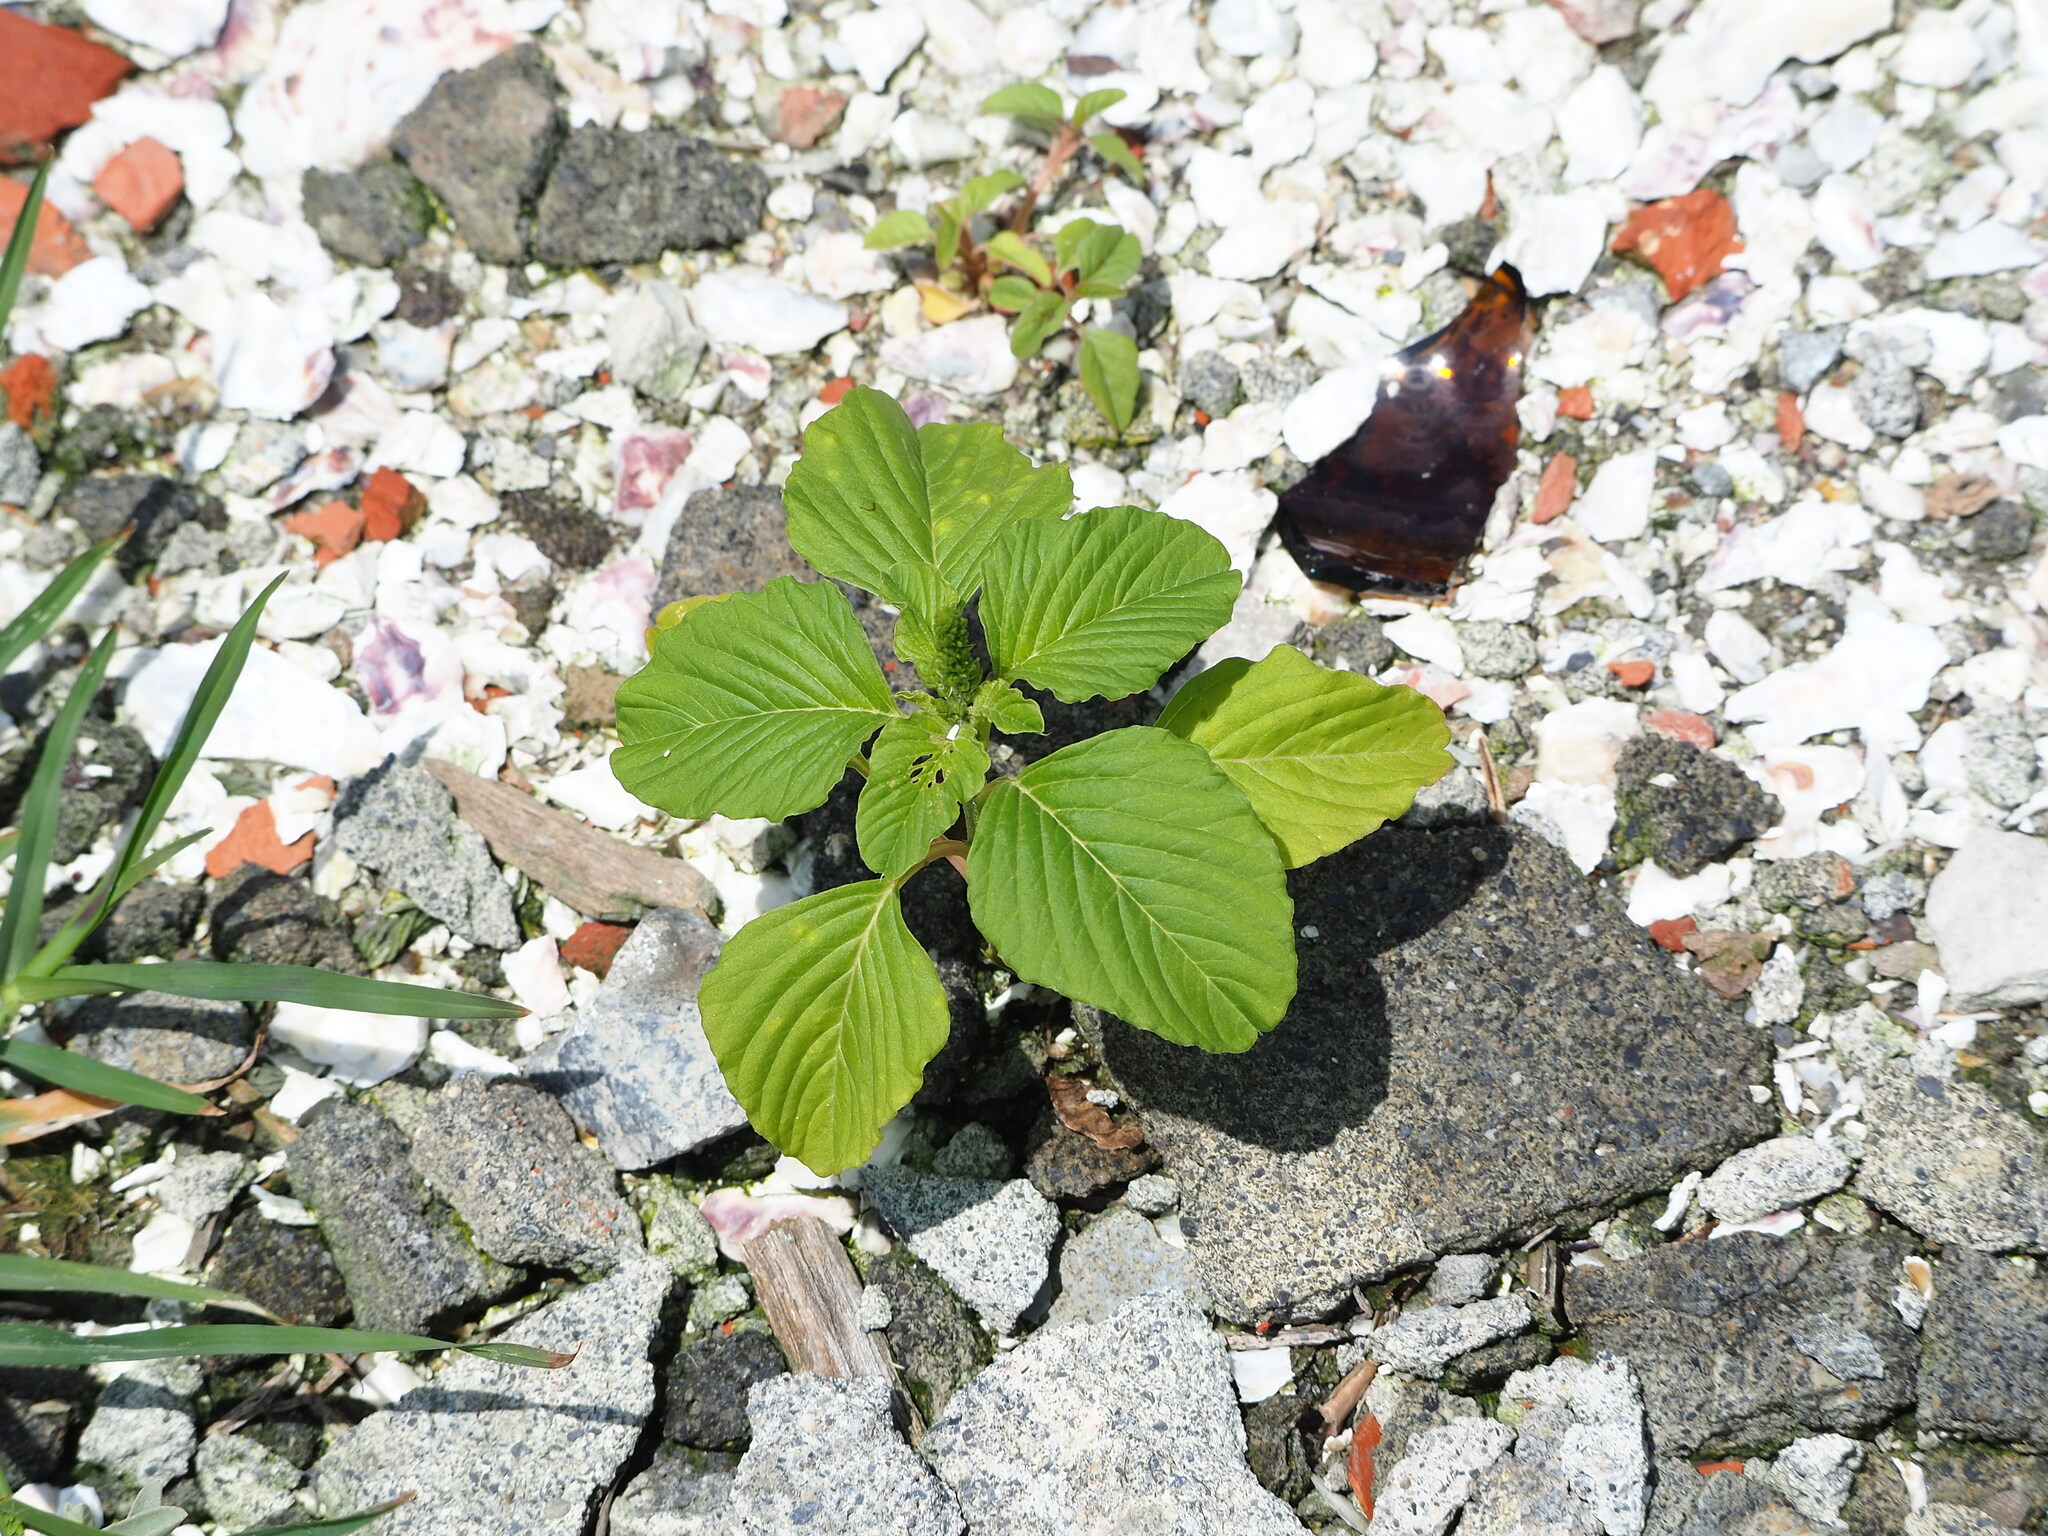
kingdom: Plantae
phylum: Tracheophyta
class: Magnoliopsida
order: Caryophyllales
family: Amaranthaceae
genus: Amaranthus
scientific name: Amaranthus blitum
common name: Purple amaranth
